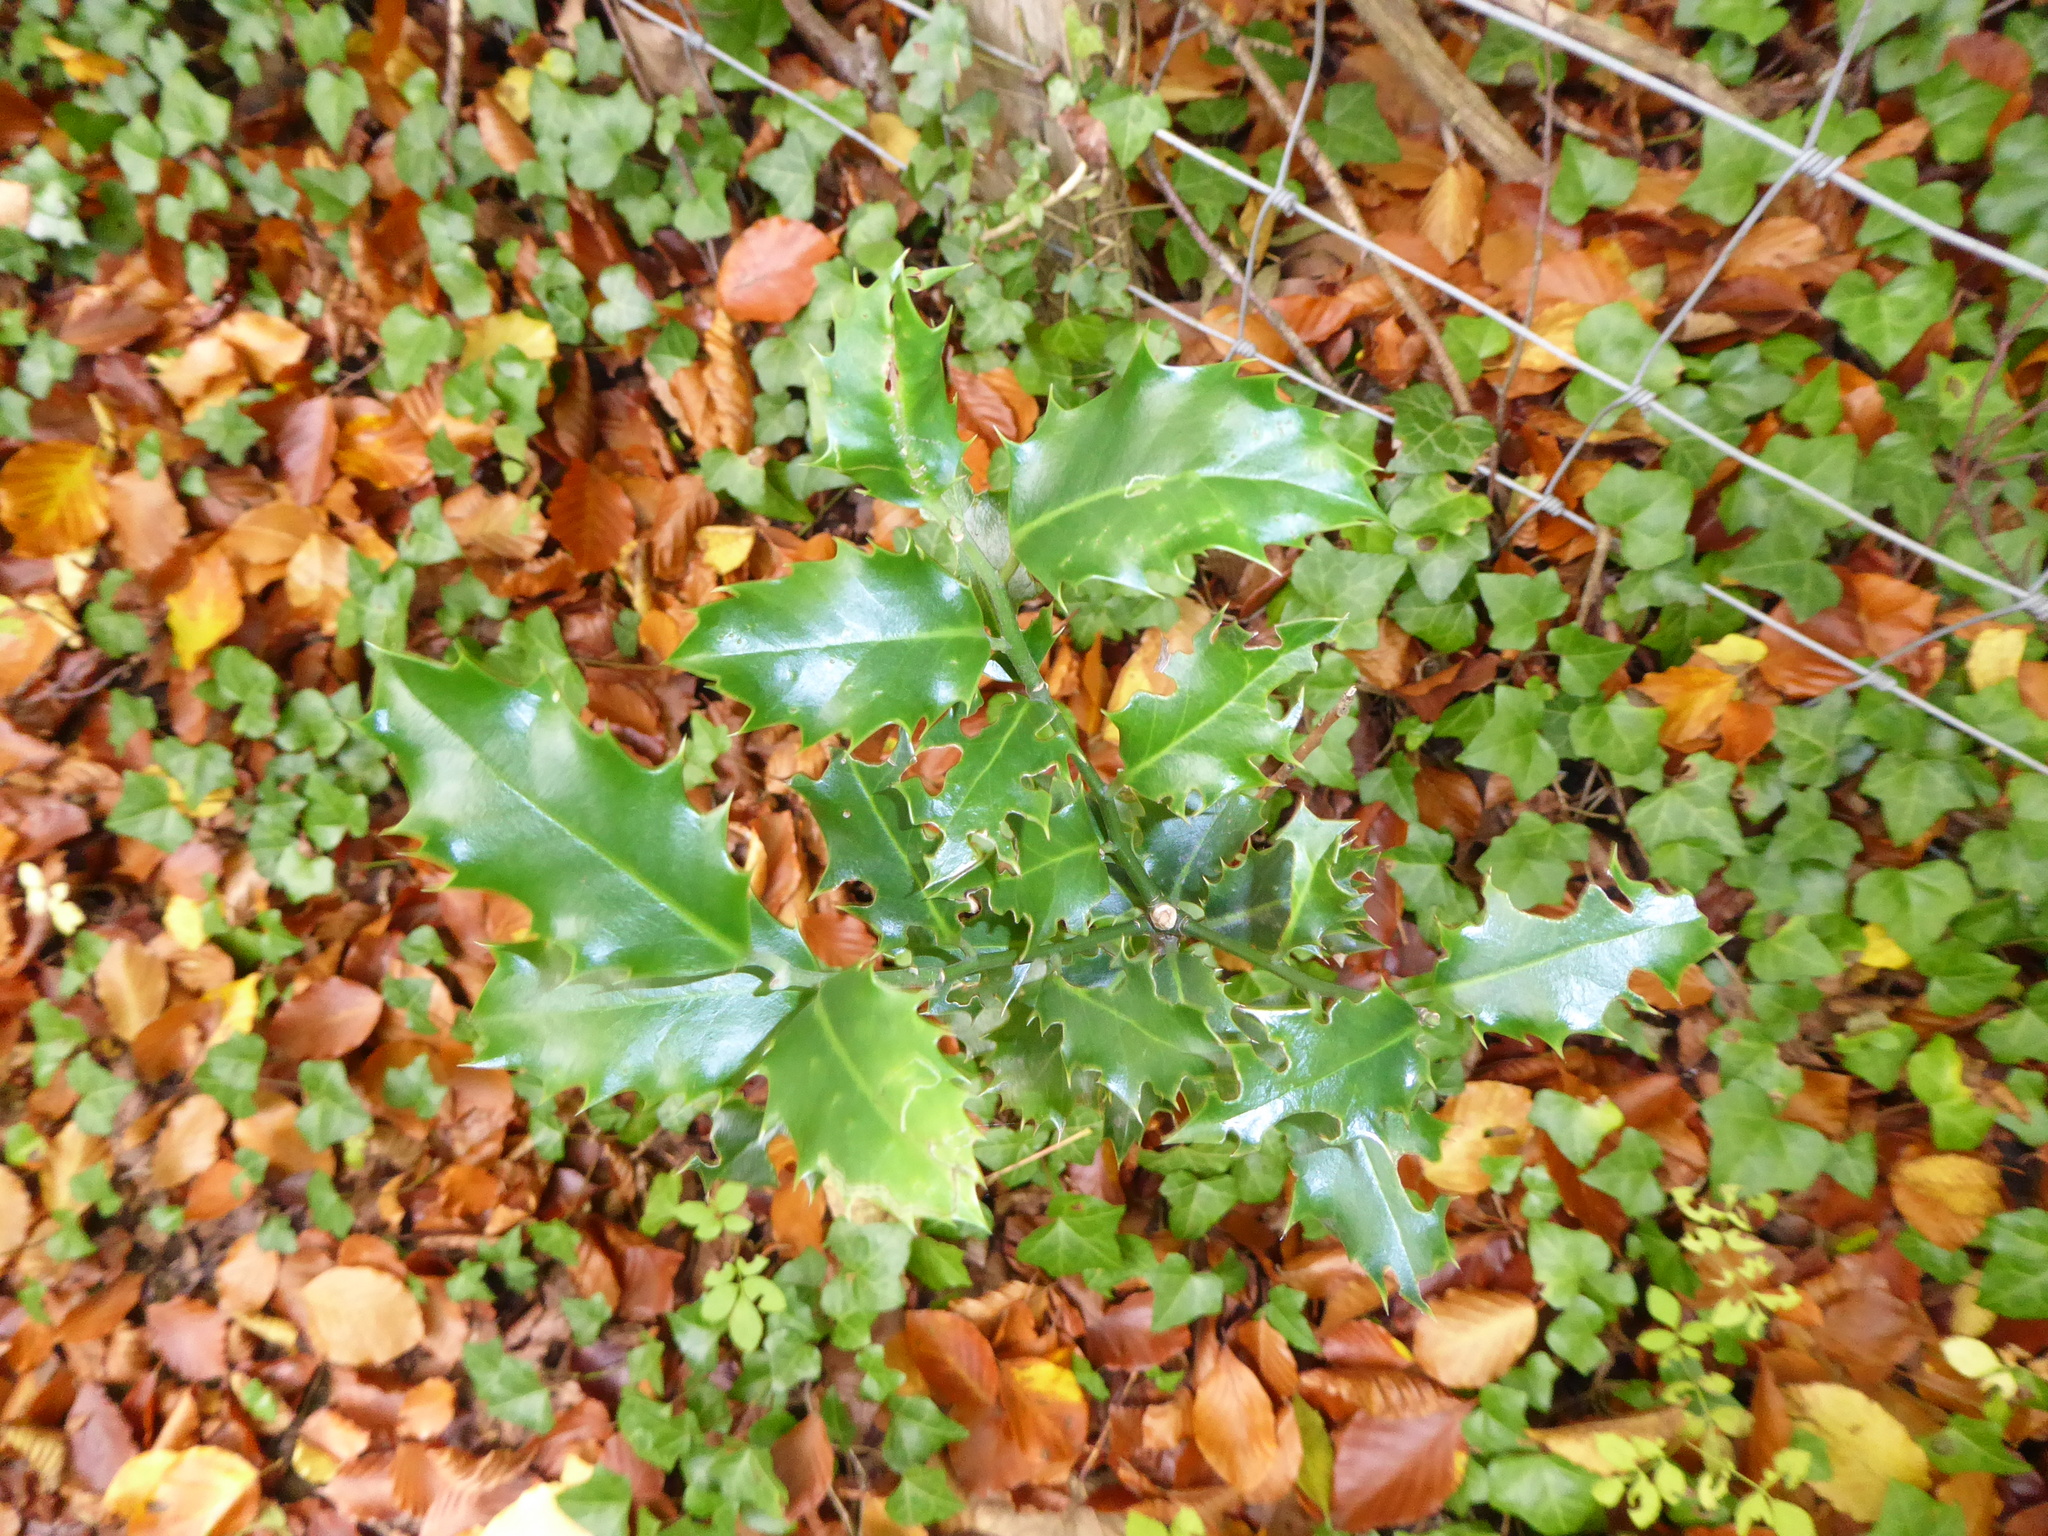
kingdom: Plantae
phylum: Tracheophyta
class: Magnoliopsida
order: Aquifoliales
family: Aquifoliaceae
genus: Ilex
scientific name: Ilex aquifolium
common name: English holly
